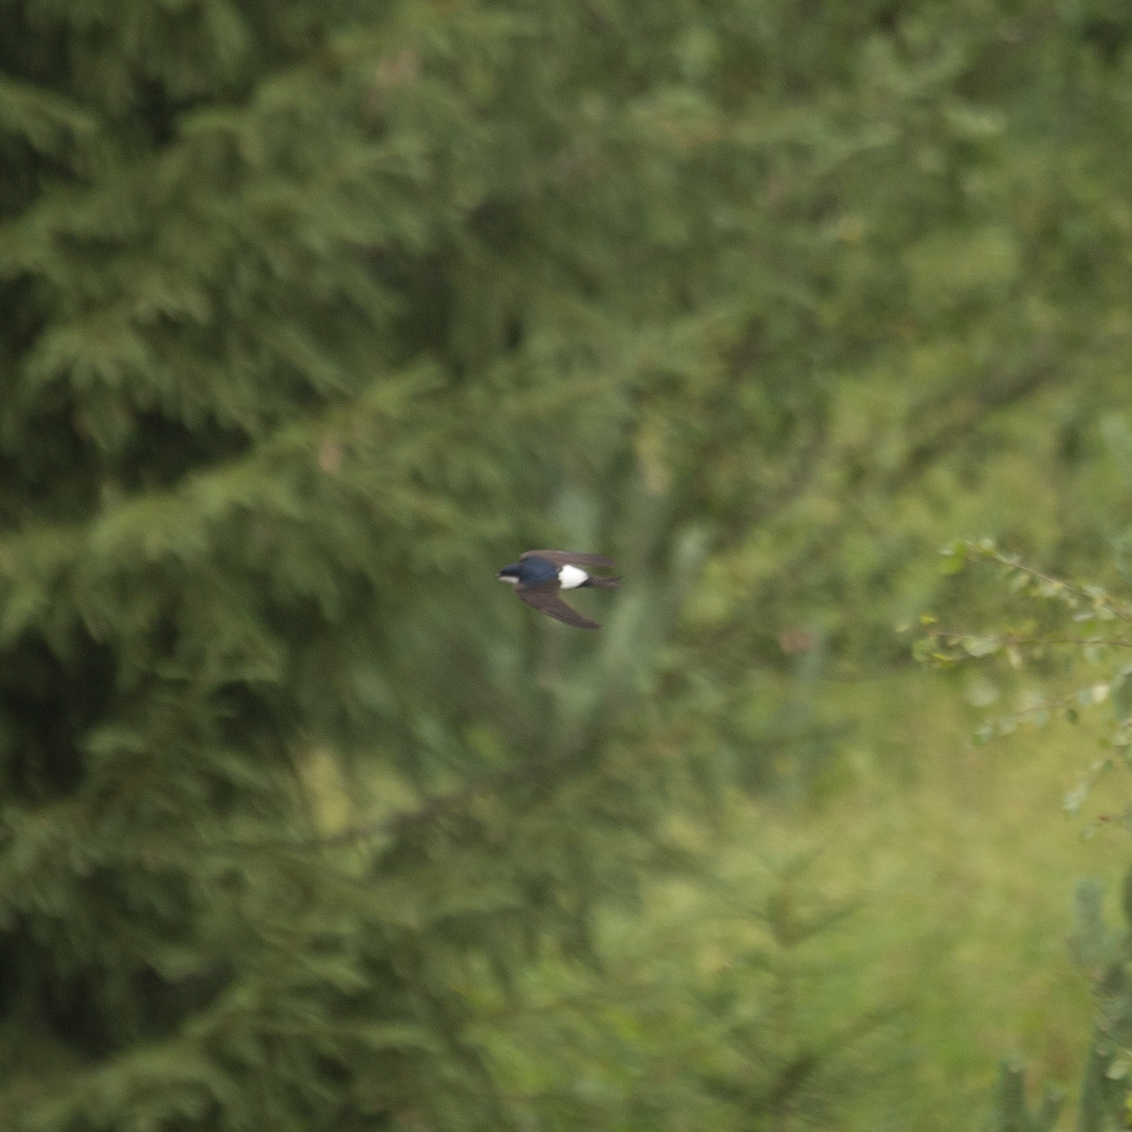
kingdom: Animalia
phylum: Chordata
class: Aves
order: Passeriformes
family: Hirundinidae
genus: Delichon
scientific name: Delichon urbicum
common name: Common house martin
